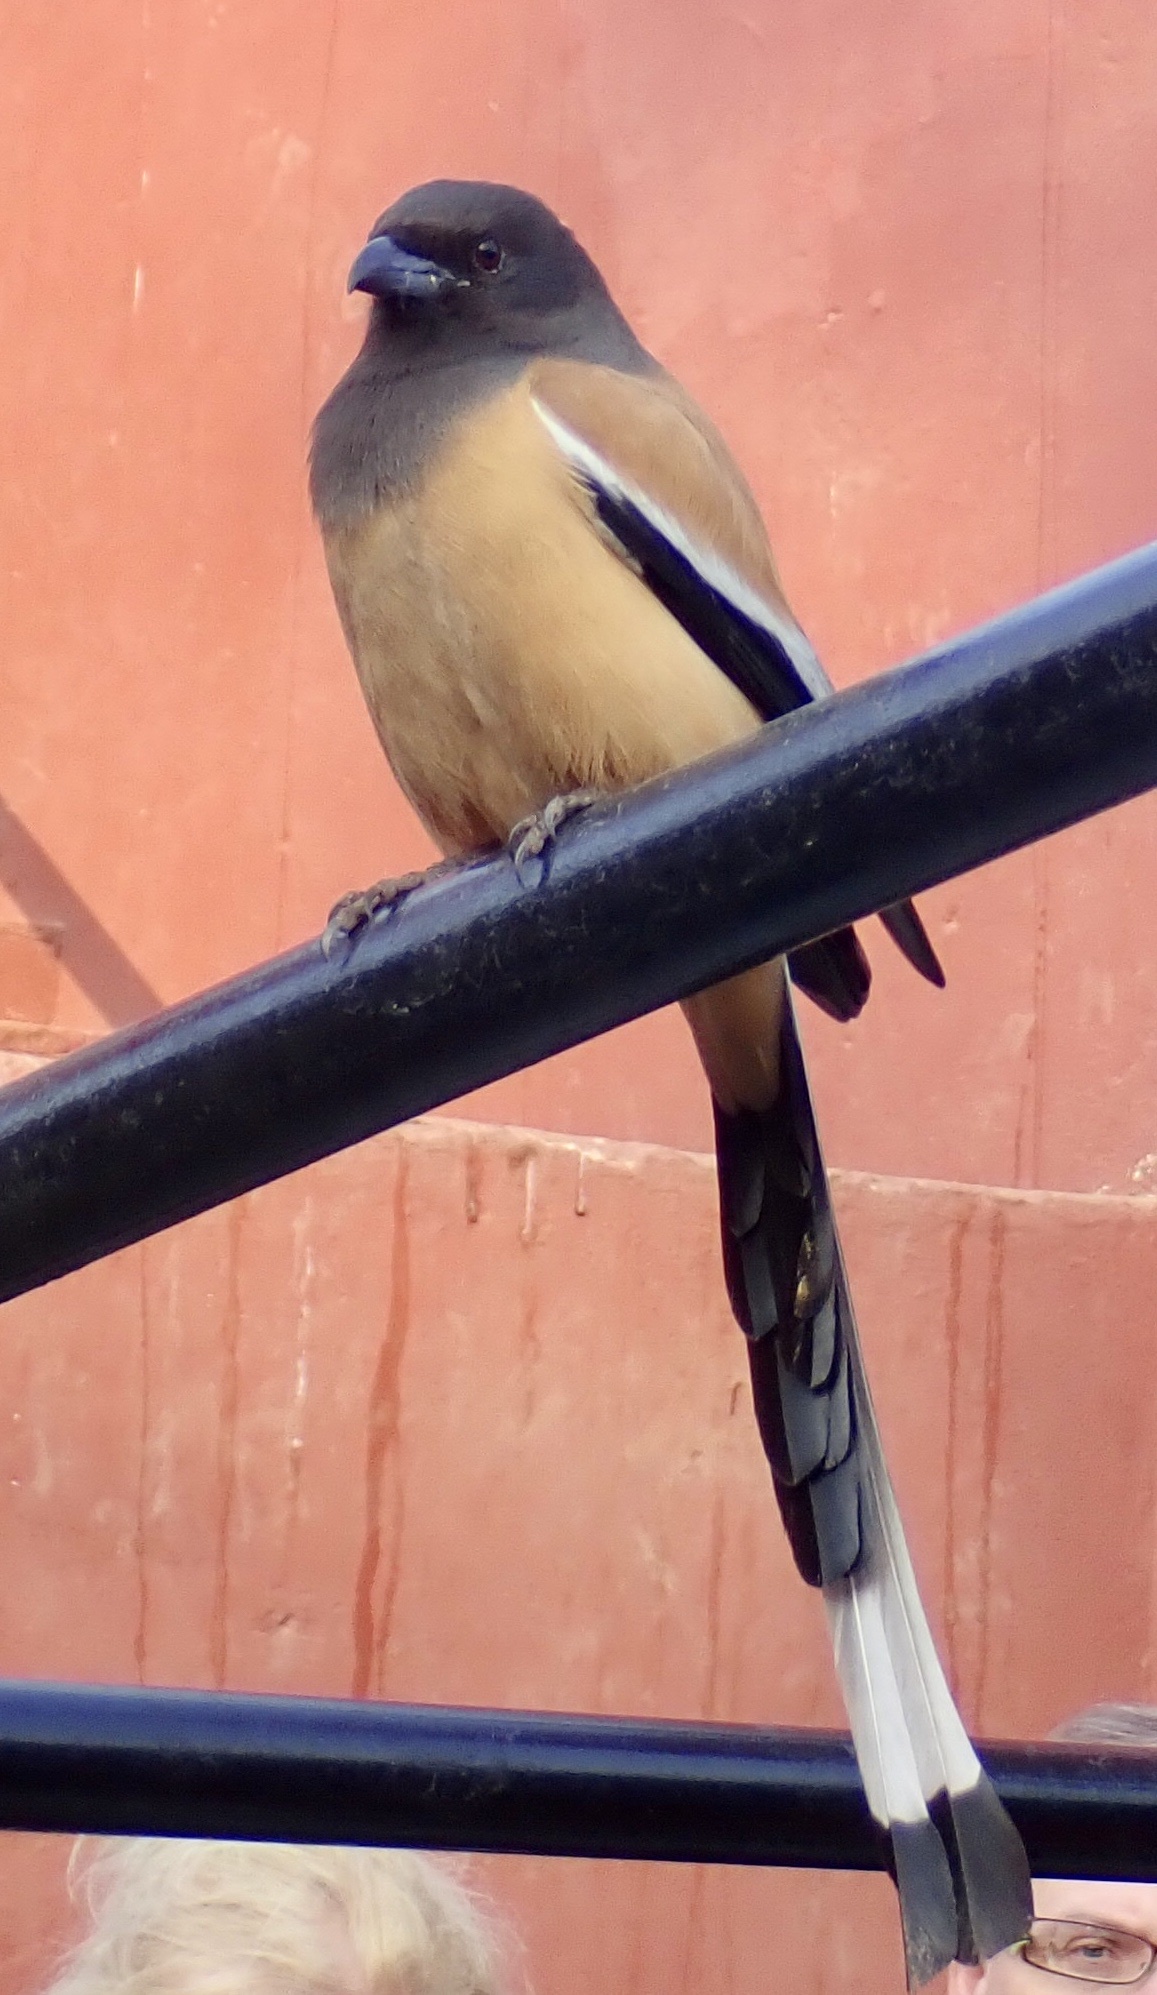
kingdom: Animalia
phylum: Chordata
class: Aves
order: Passeriformes
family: Corvidae
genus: Dendrocitta
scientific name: Dendrocitta vagabunda
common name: Rufous treepie
